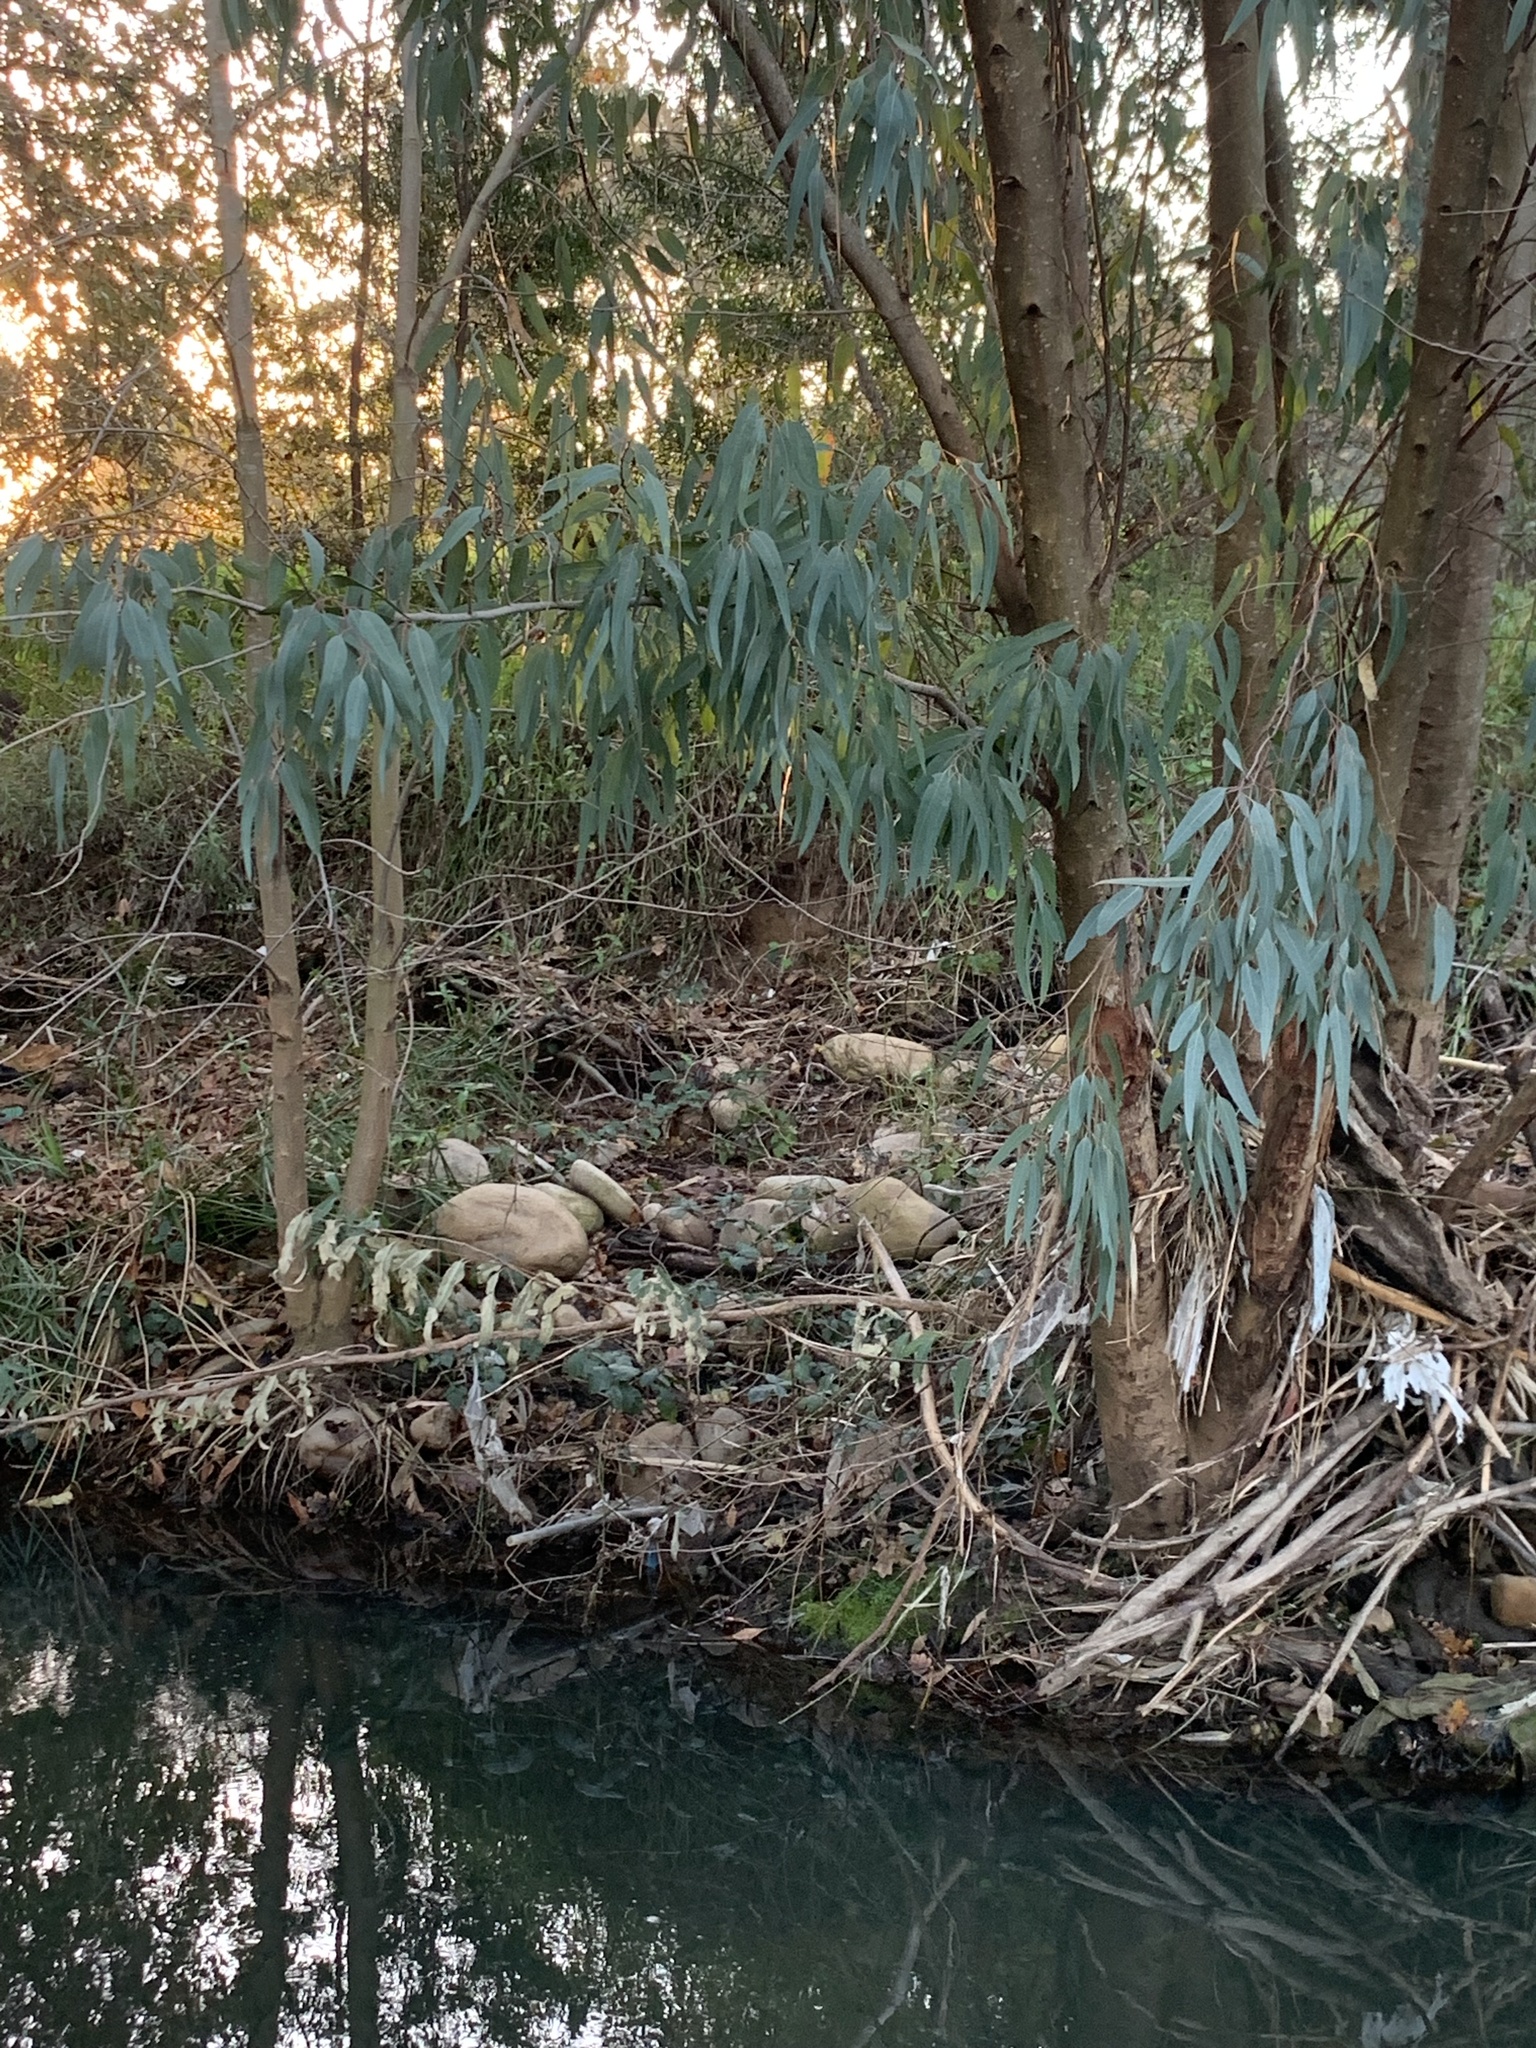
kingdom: Plantae
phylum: Tracheophyta
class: Magnoliopsida
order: Myrtales
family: Myrtaceae
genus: Eucalyptus
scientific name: Eucalyptus camaldulensis
